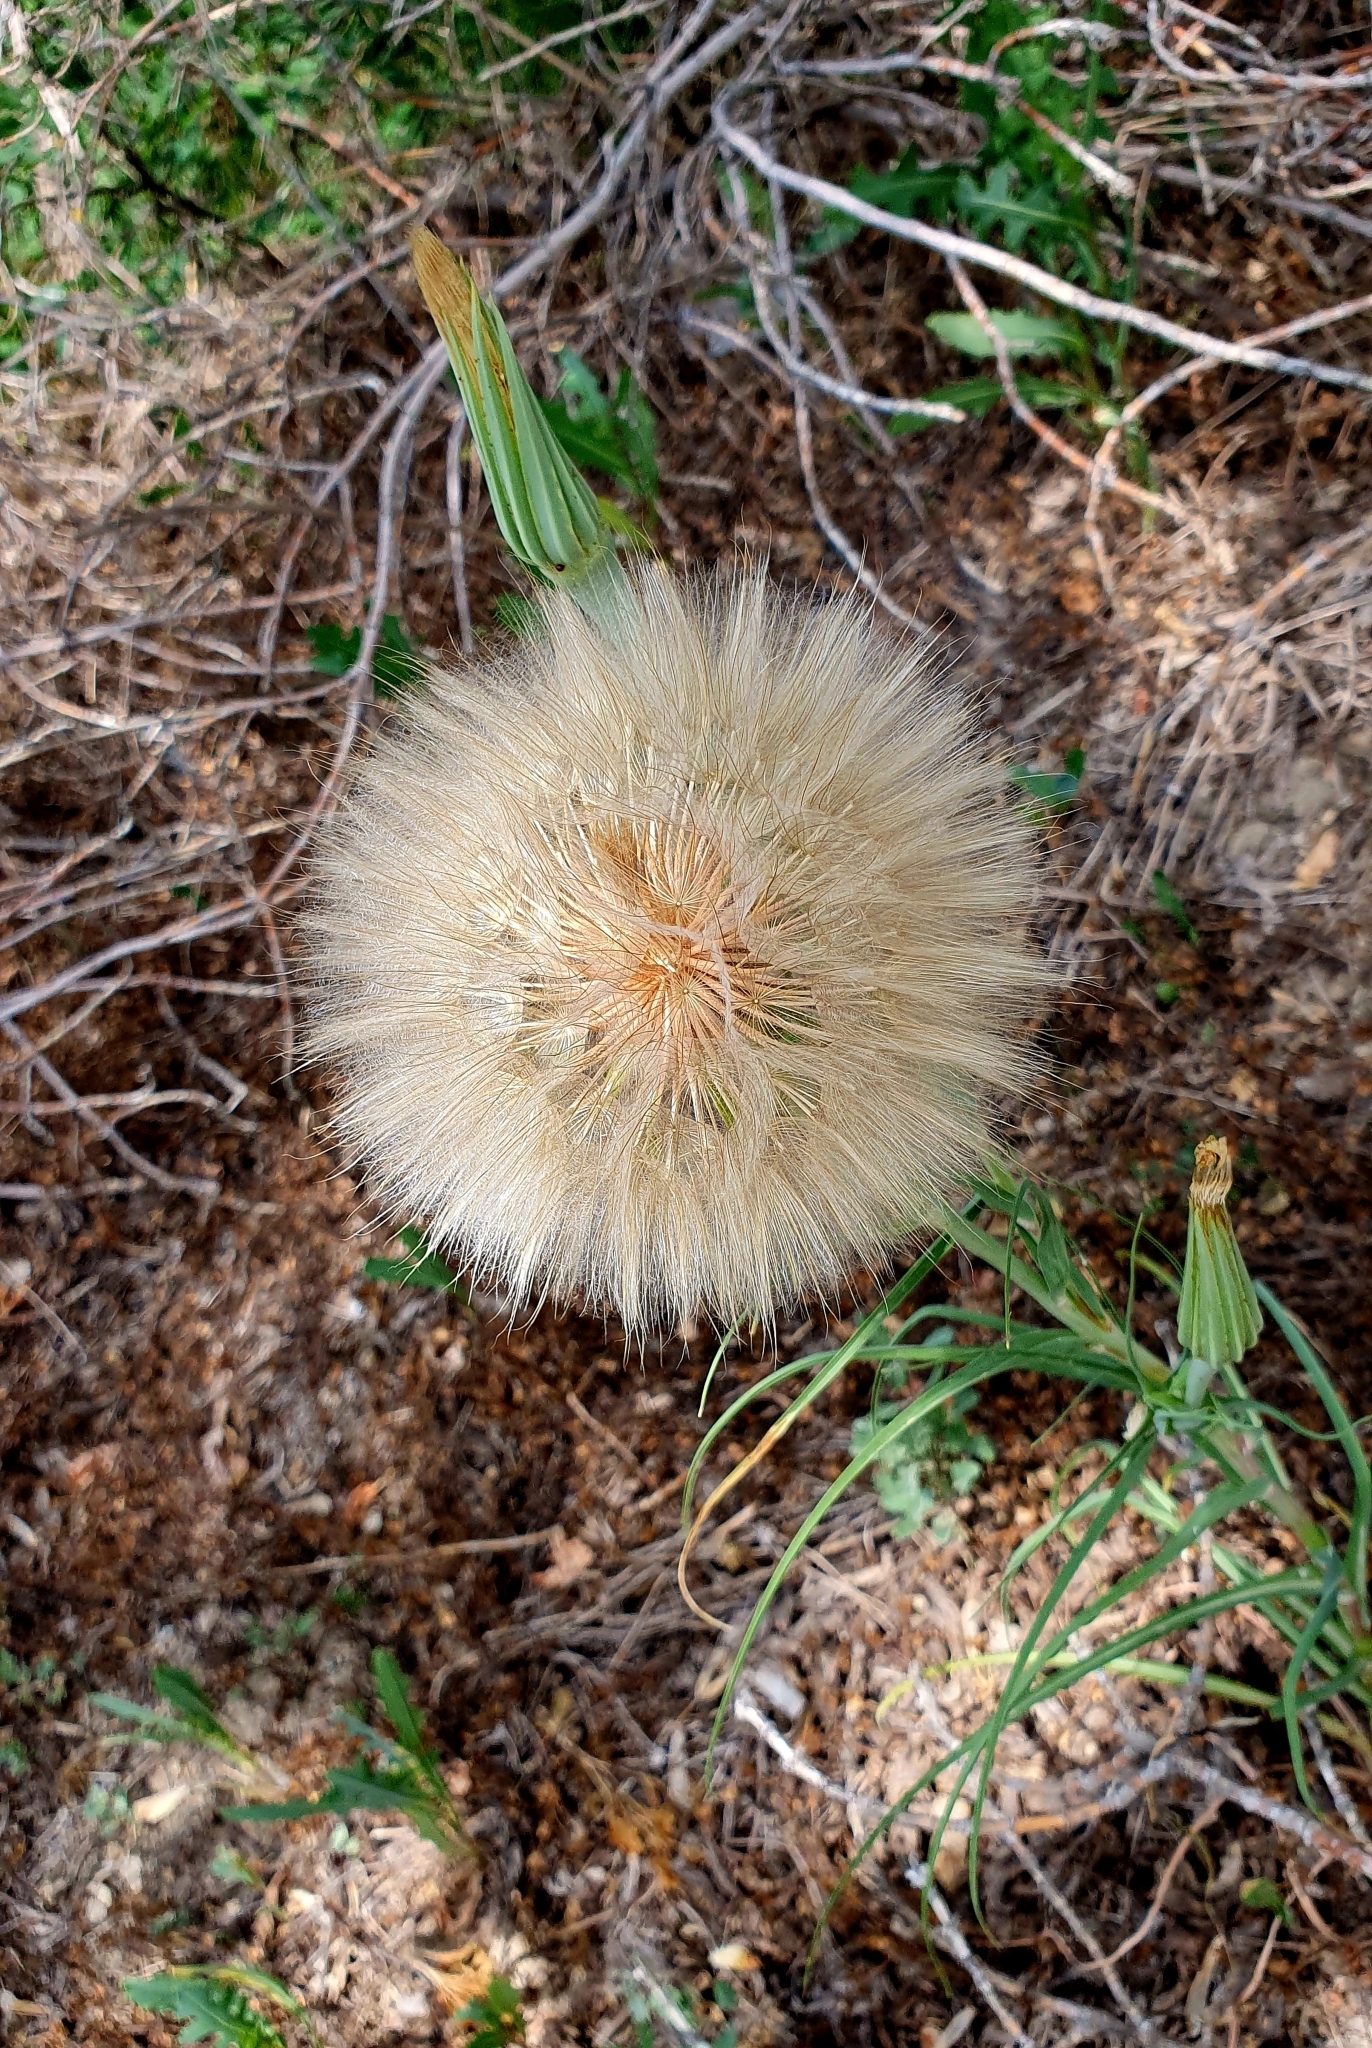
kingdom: Plantae
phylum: Tracheophyta
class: Magnoliopsida
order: Asterales
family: Asteraceae
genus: Tragopogon
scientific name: Tragopogon dubius
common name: Yellow salsify
